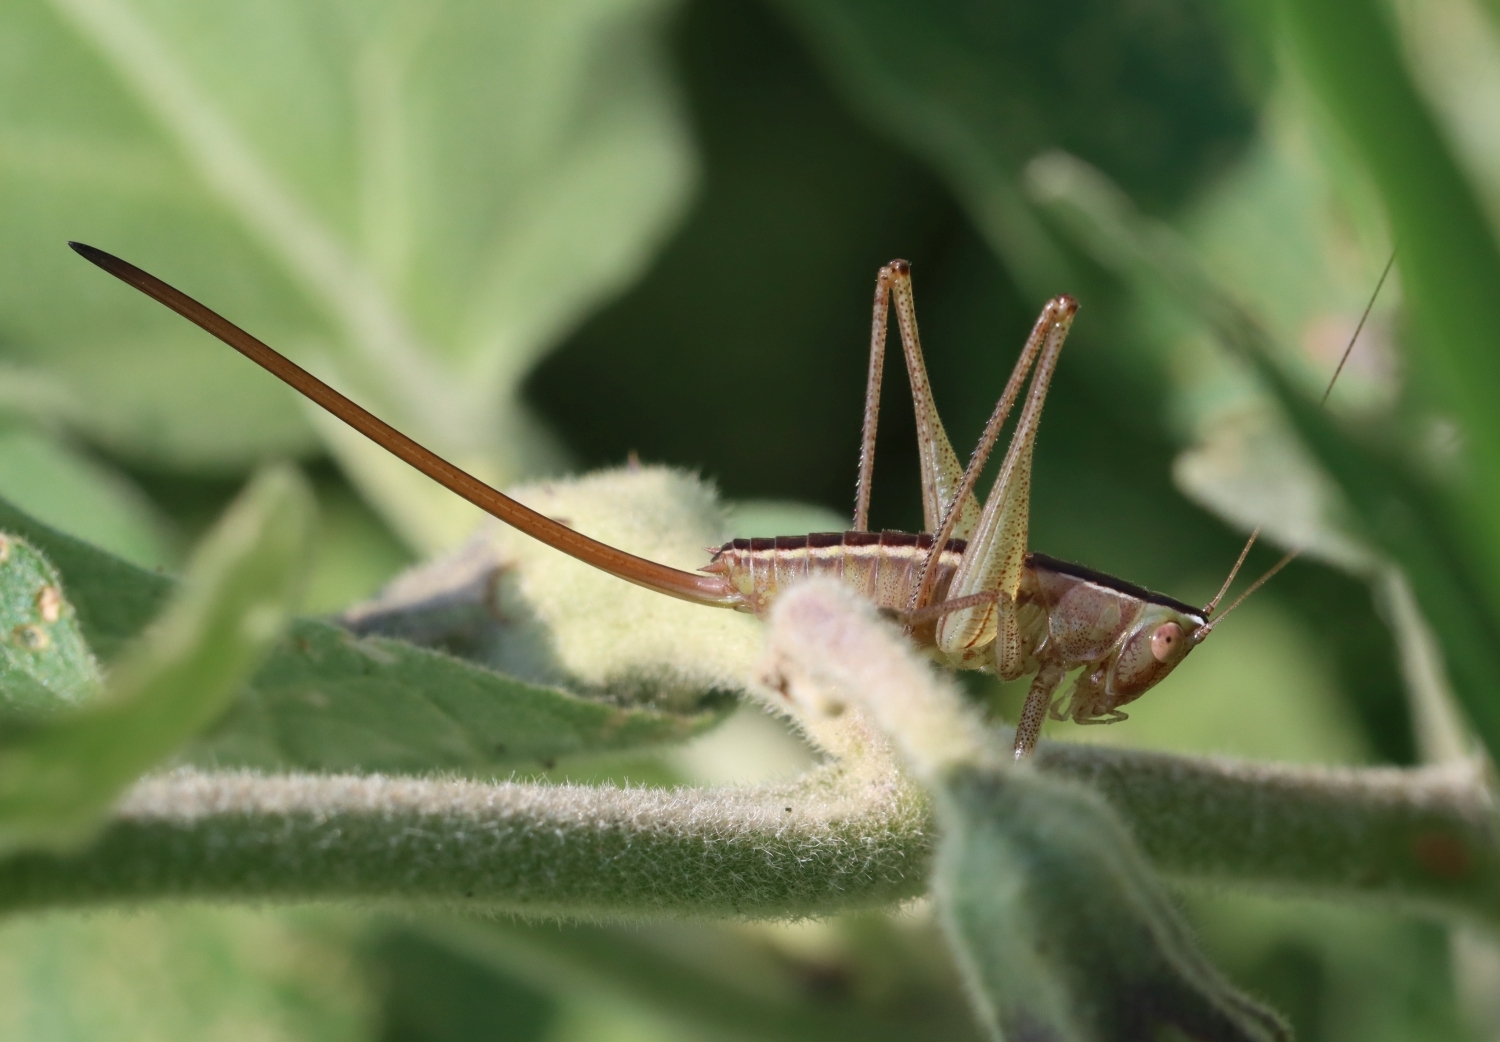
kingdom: Animalia
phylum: Arthropoda
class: Insecta
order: Orthoptera
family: Tettigoniidae
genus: Conocephalus
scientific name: Conocephalus strictus
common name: Straight-lanced katydid
